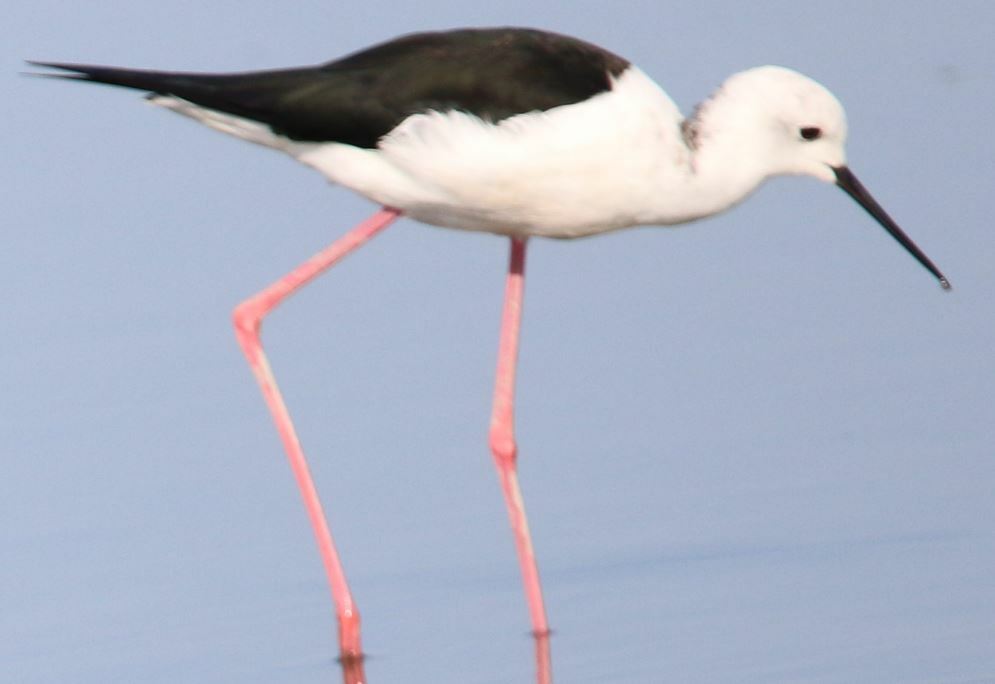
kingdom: Animalia
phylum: Chordata
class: Aves
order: Charadriiformes
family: Recurvirostridae
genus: Himantopus
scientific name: Himantopus himantopus
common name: Black-winged stilt
